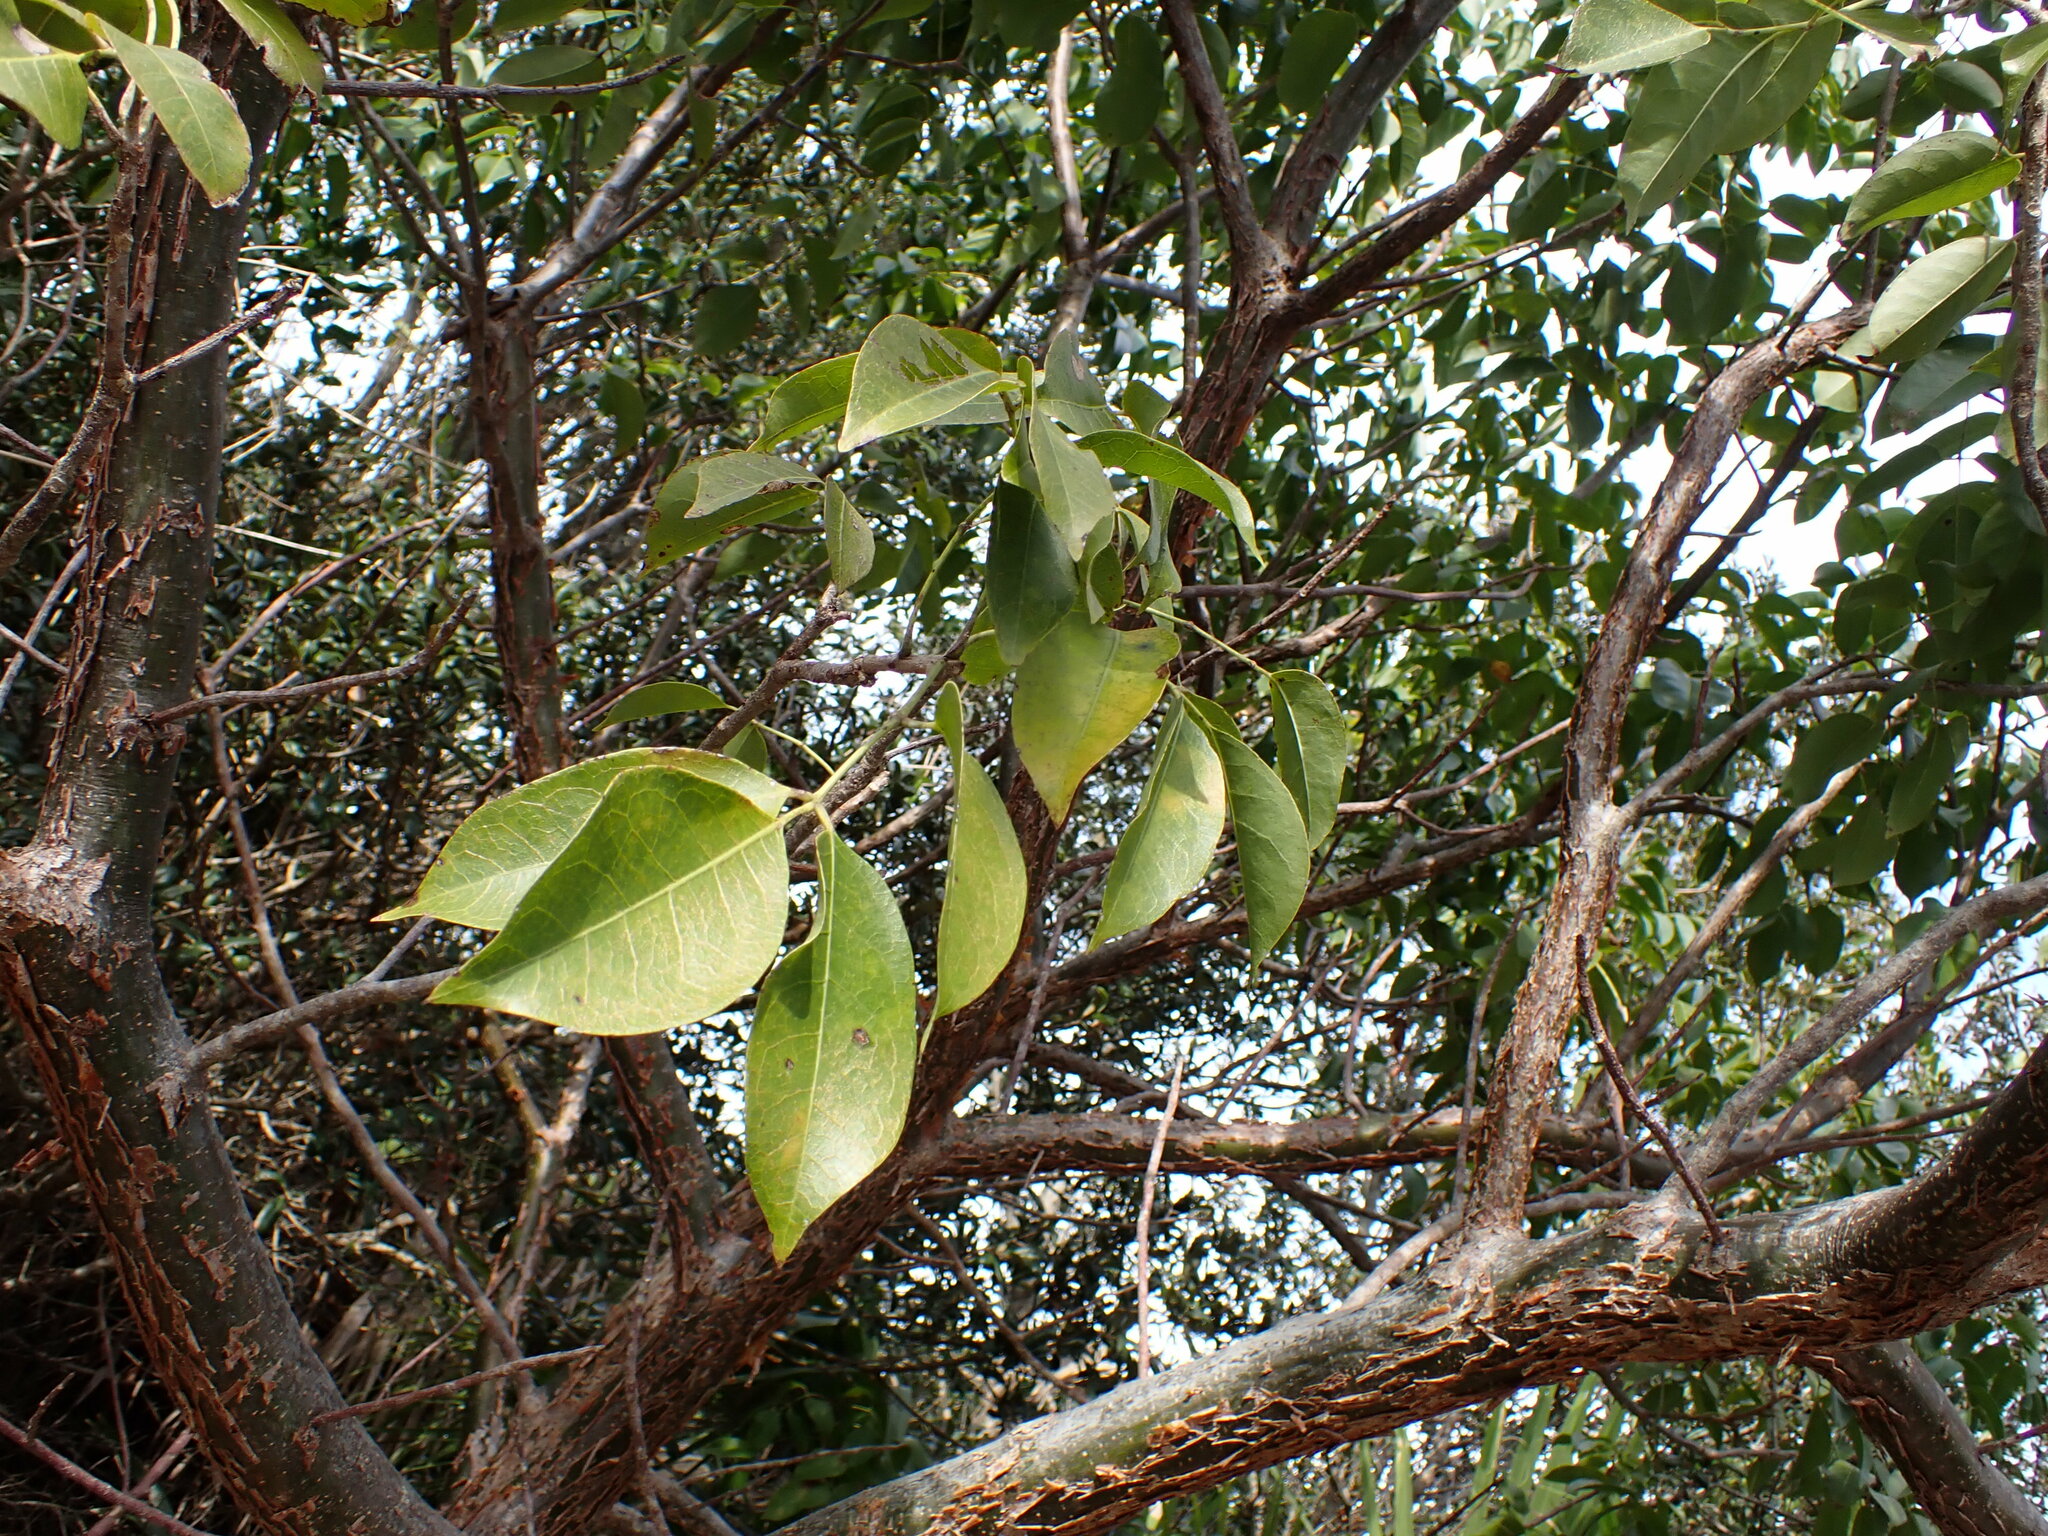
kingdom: Plantae
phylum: Tracheophyta
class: Magnoliopsida
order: Sapindales
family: Burseraceae
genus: Bursera
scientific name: Bursera simaruba
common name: Turpentine tree
